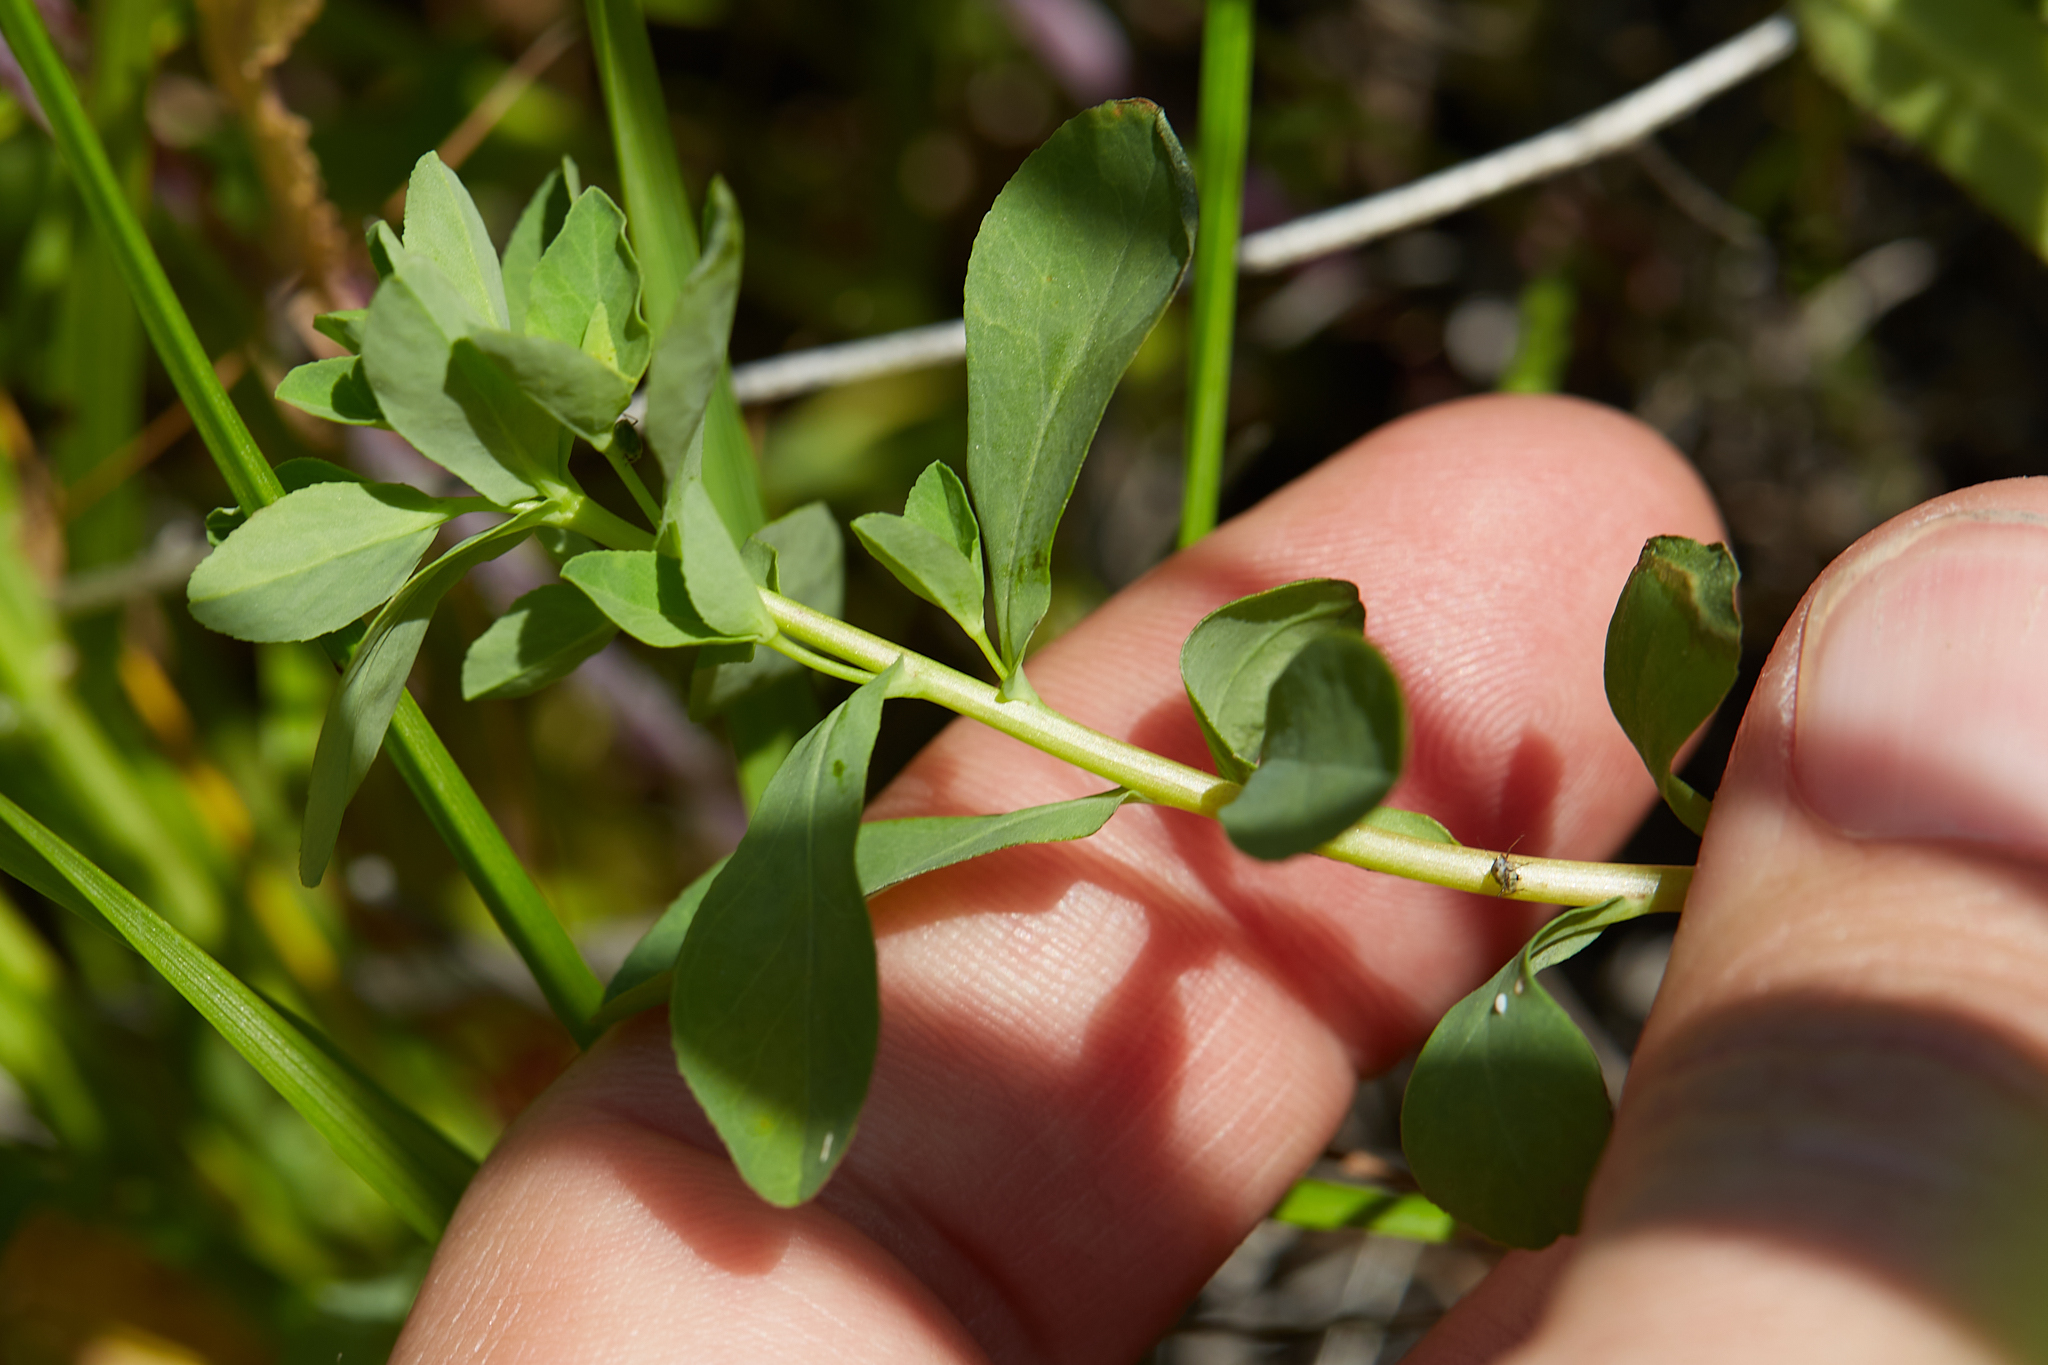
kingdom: Plantae
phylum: Tracheophyta
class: Magnoliopsida
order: Malpighiales
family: Euphorbiaceae
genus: Euphorbia
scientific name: Euphorbia spathulata
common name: Blunt spurge
